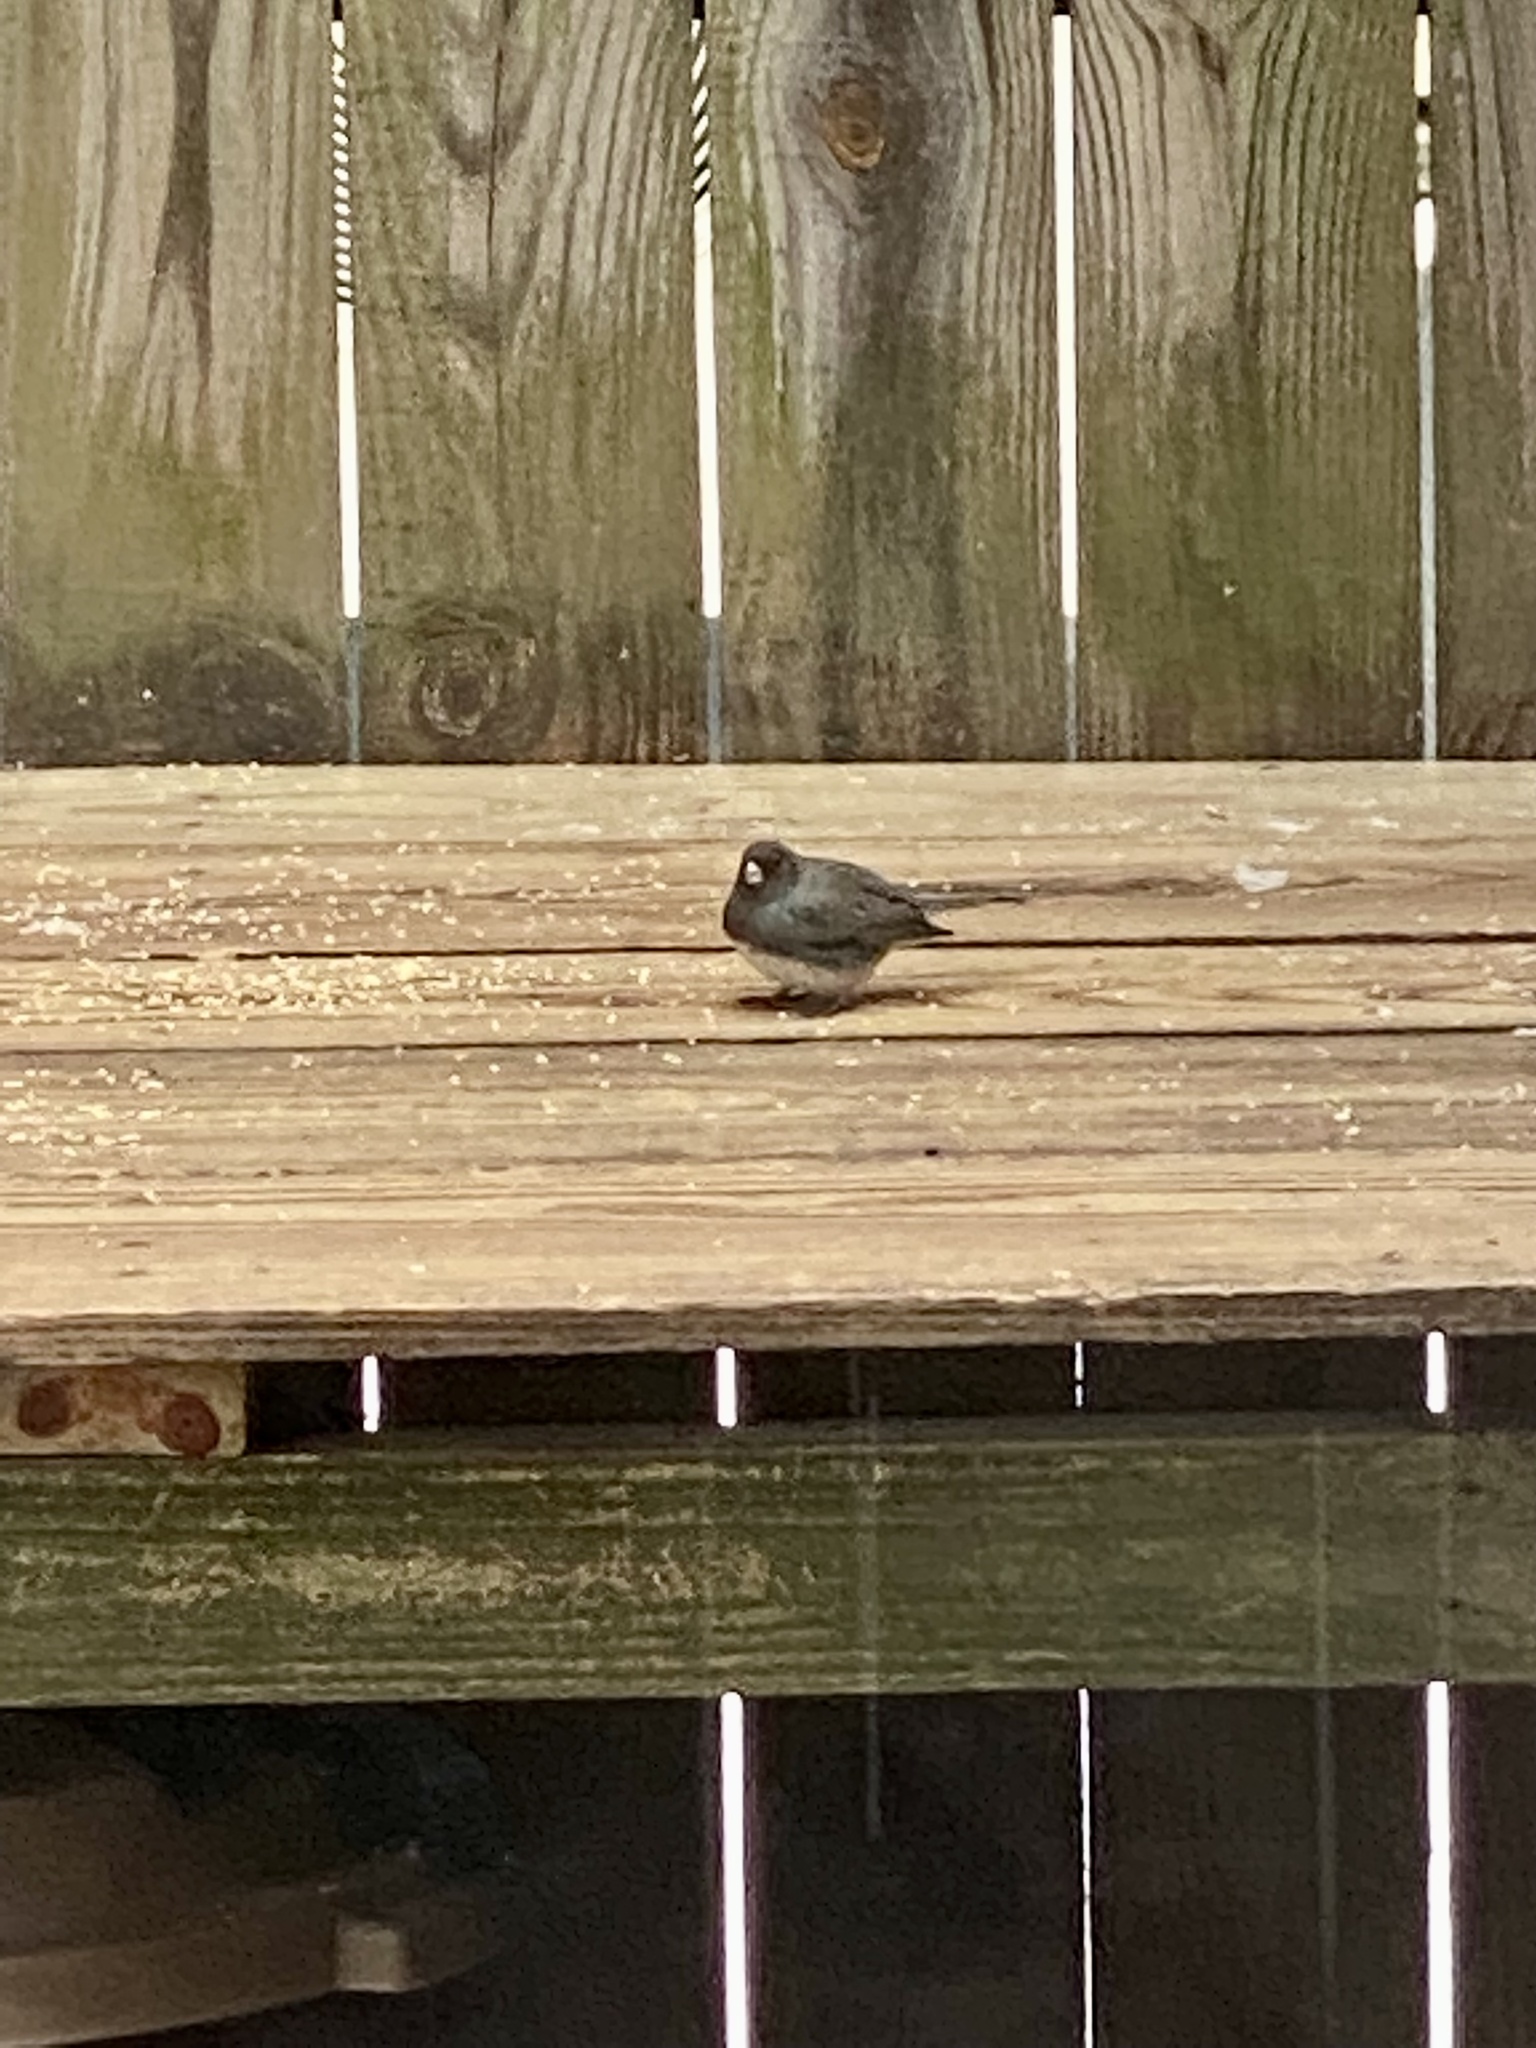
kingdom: Animalia
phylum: Chordata
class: Aves
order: Passeriformes
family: Passerellidae
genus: Junco
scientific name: Junco hyemalis
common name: Dark-eyed junco
